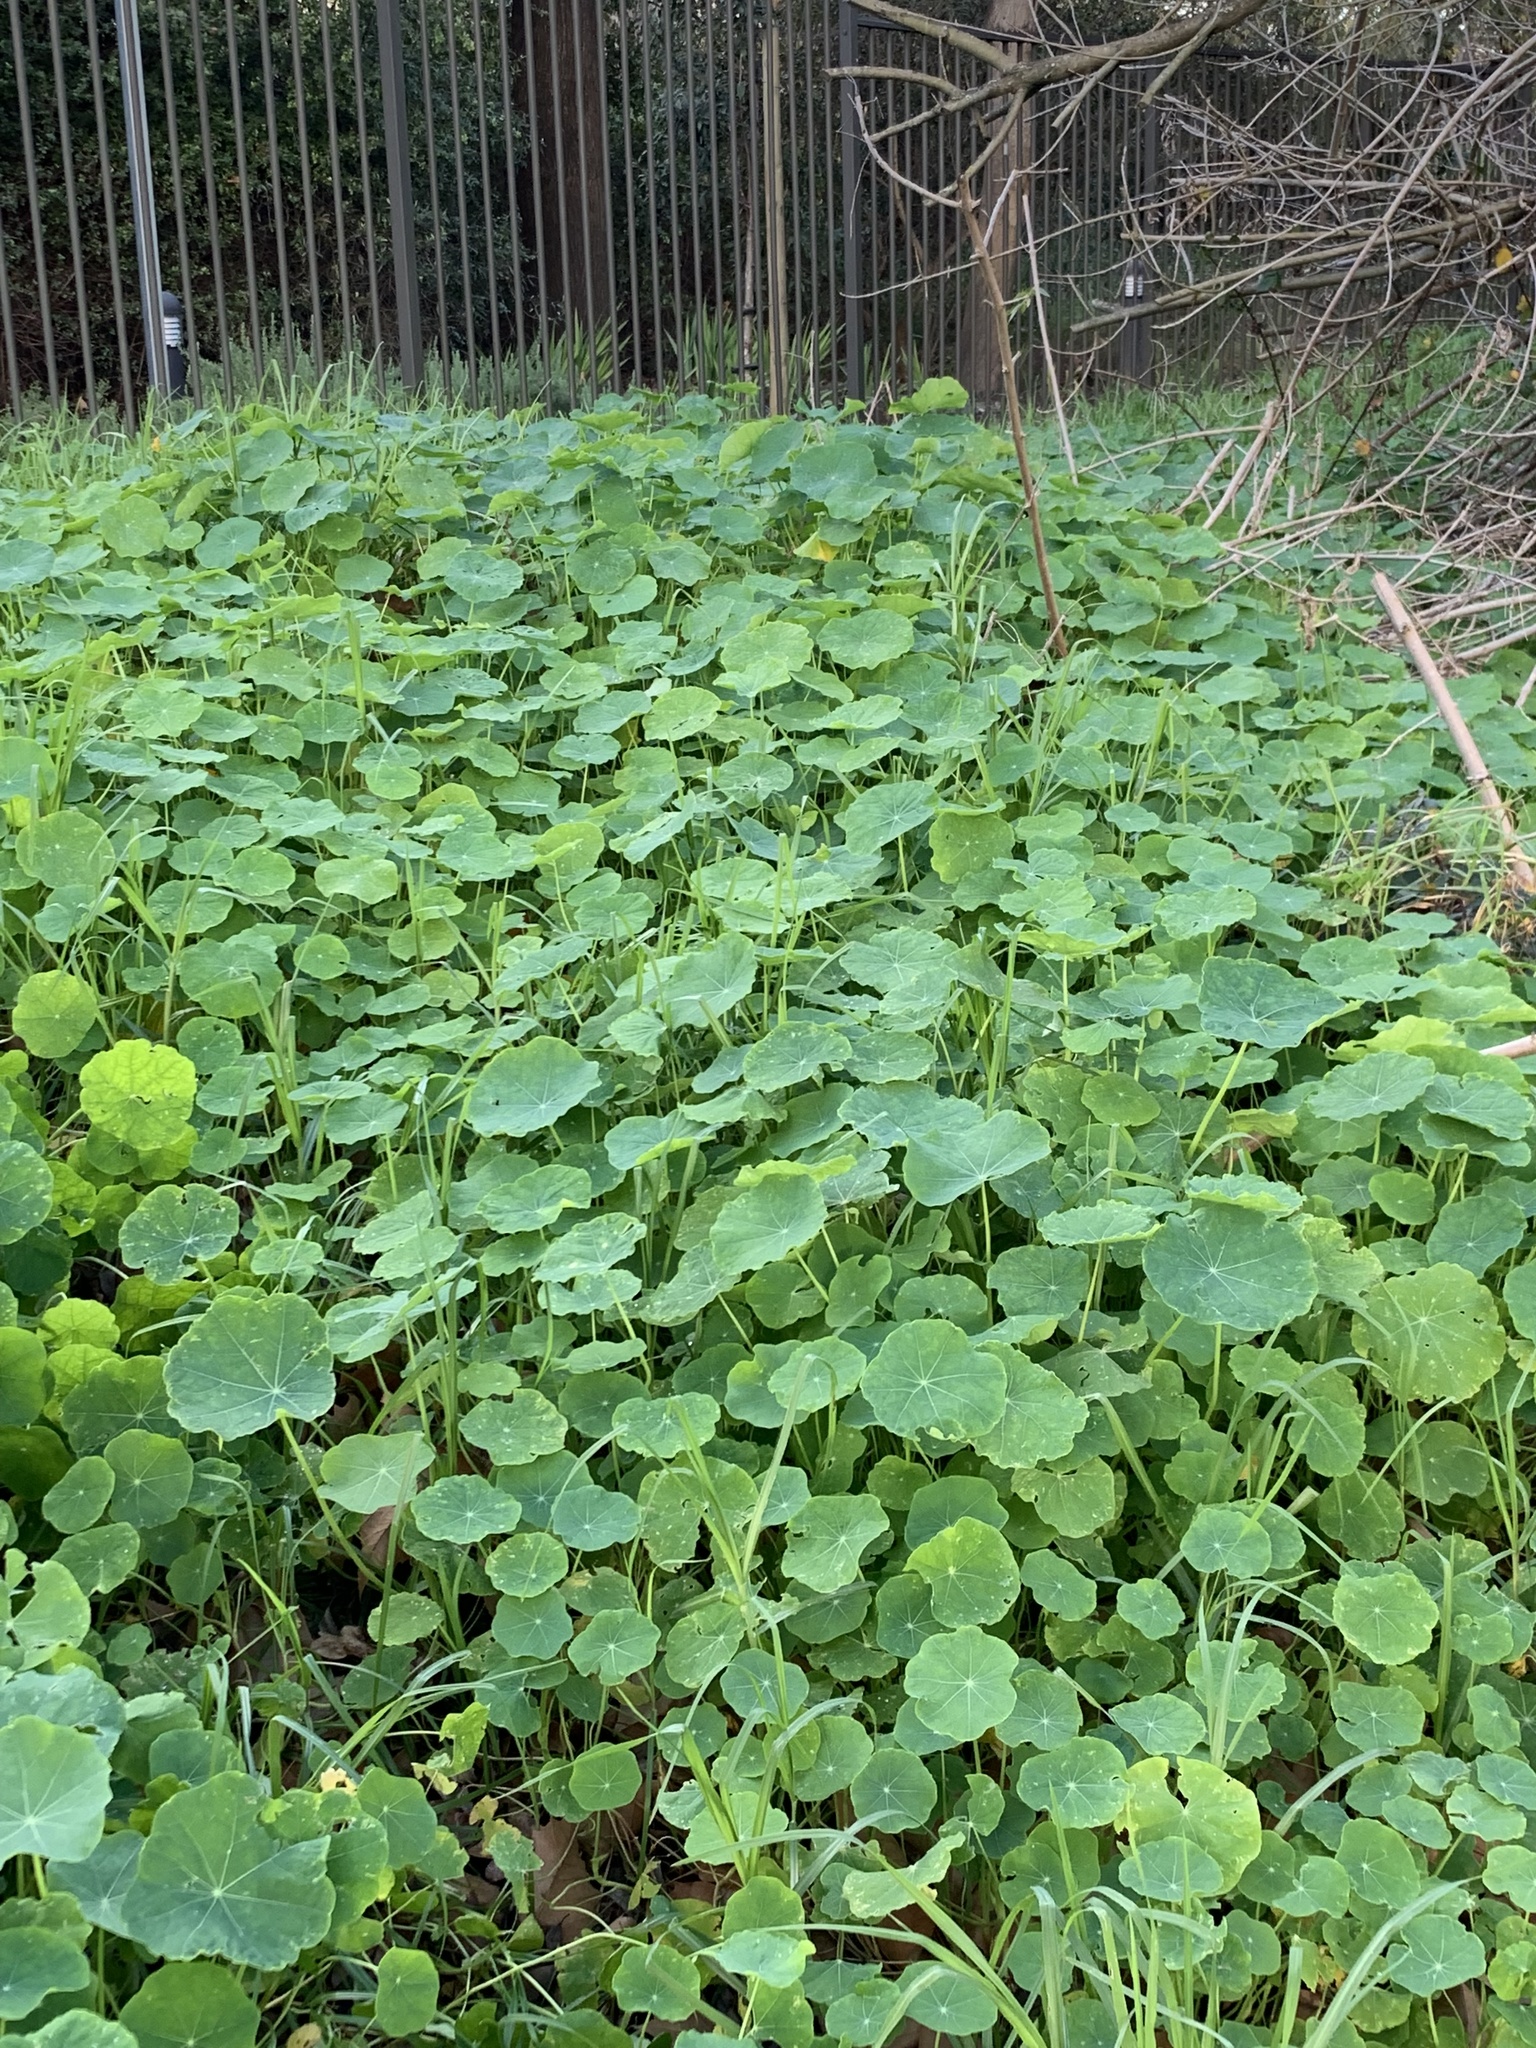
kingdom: Plantae
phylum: Tracheophyta
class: Magnoliopsida
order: Brassicales
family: Tropaeolaceae
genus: Tropaeolum
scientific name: Tropaeolum majus
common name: Nasturtium
